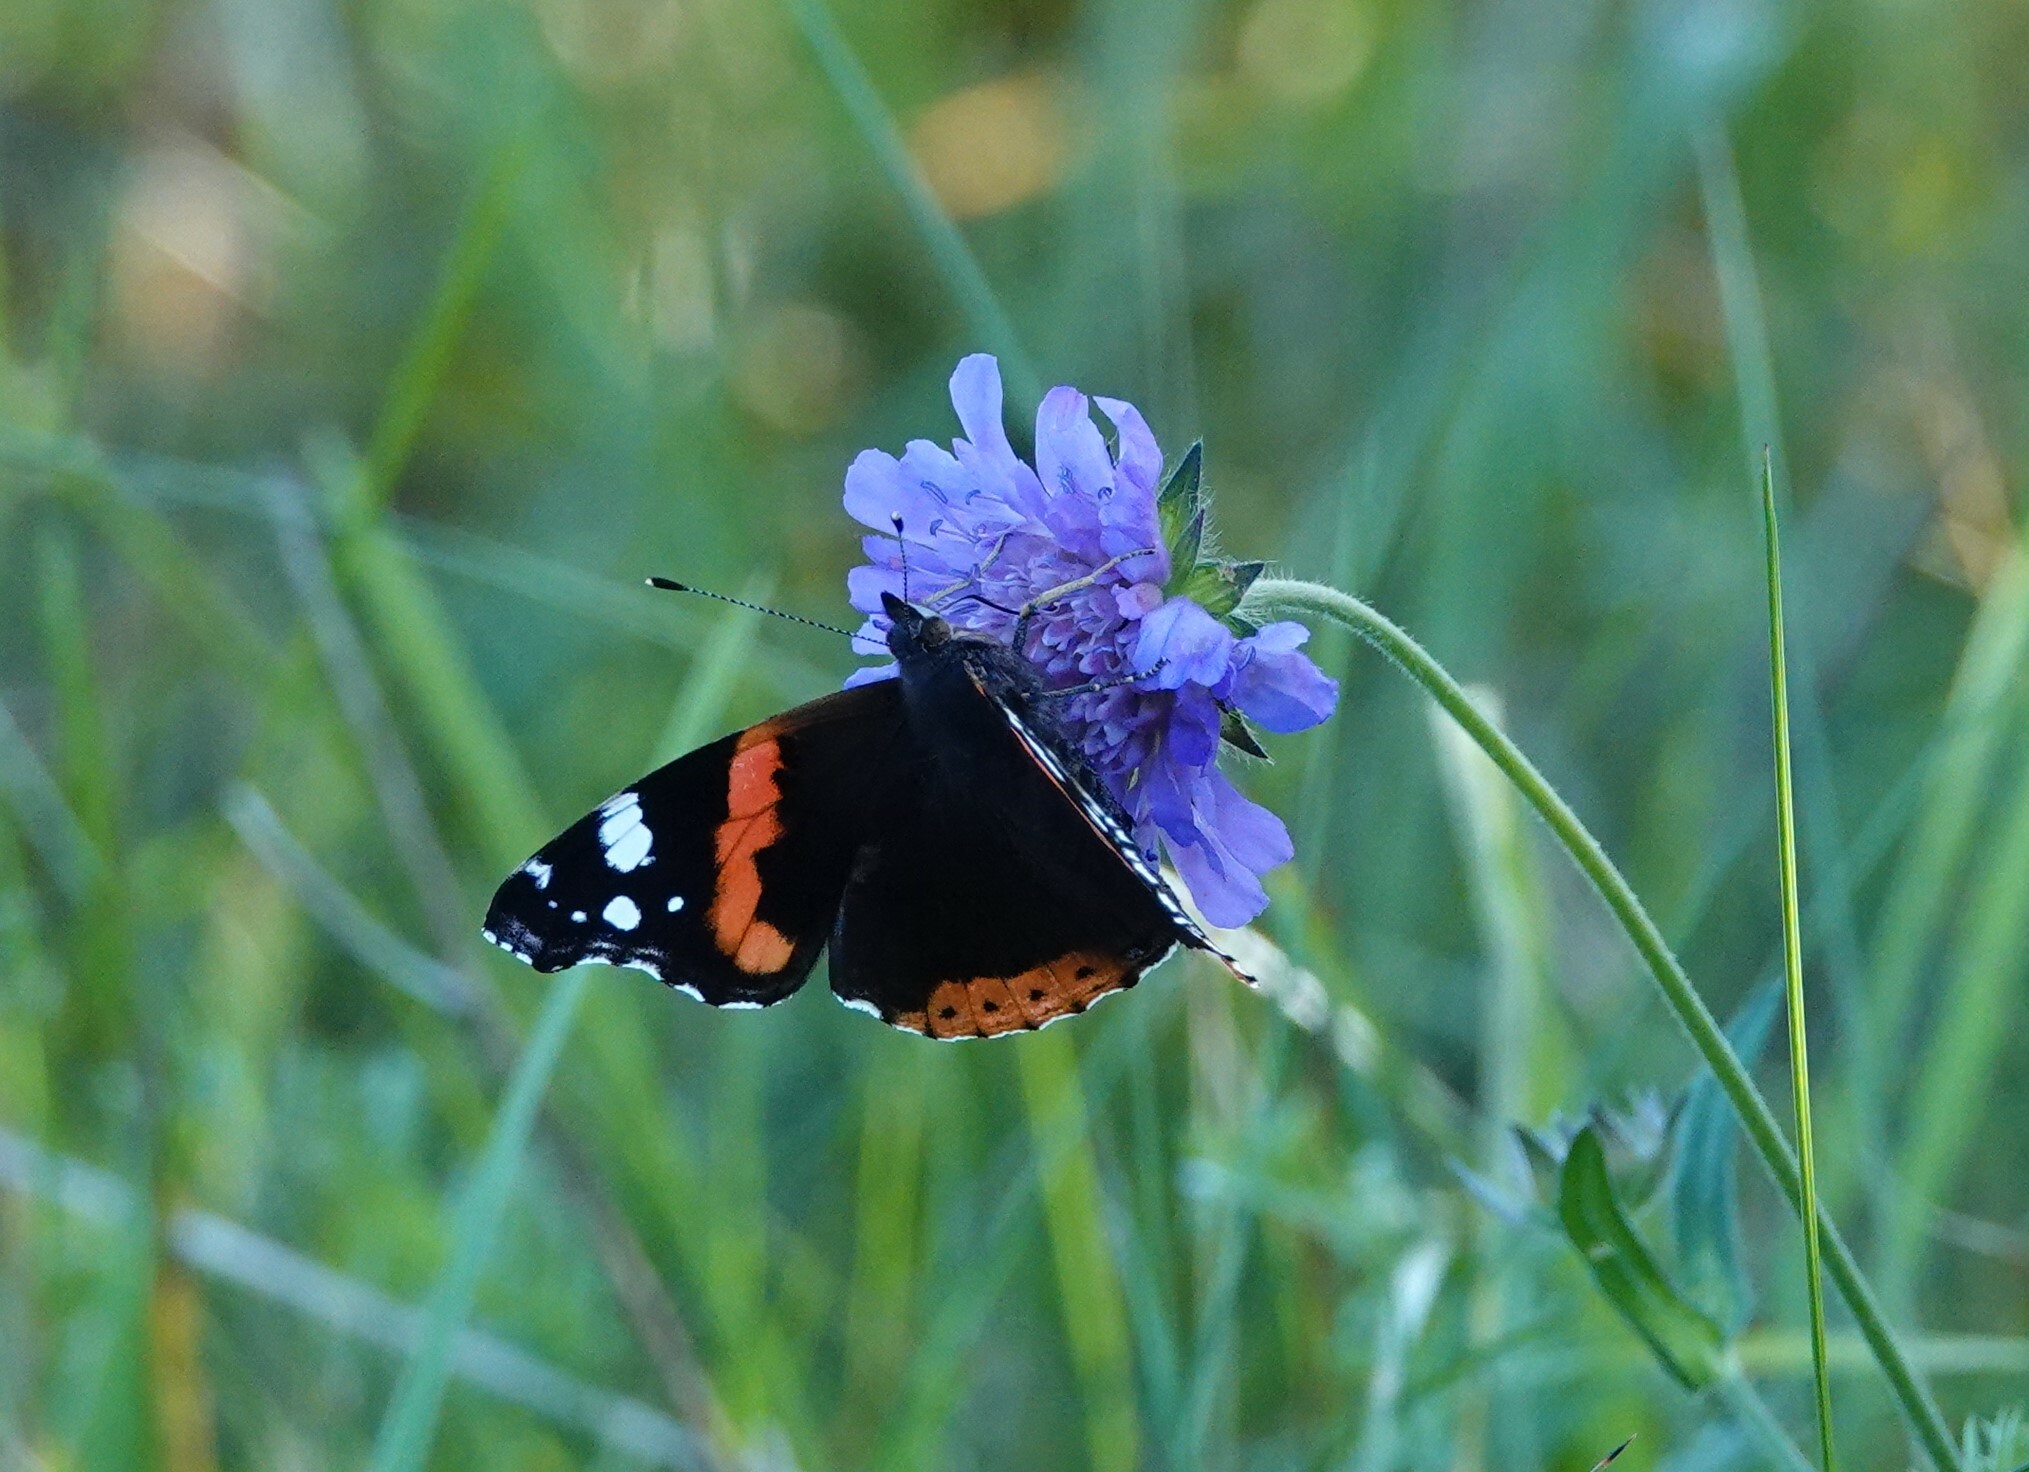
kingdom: Animalia
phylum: Arthropoda
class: Insecta
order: Lepidoptera
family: Nymphalidae
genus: Vanessa
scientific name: Vanessa atalanta
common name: Red admiral
